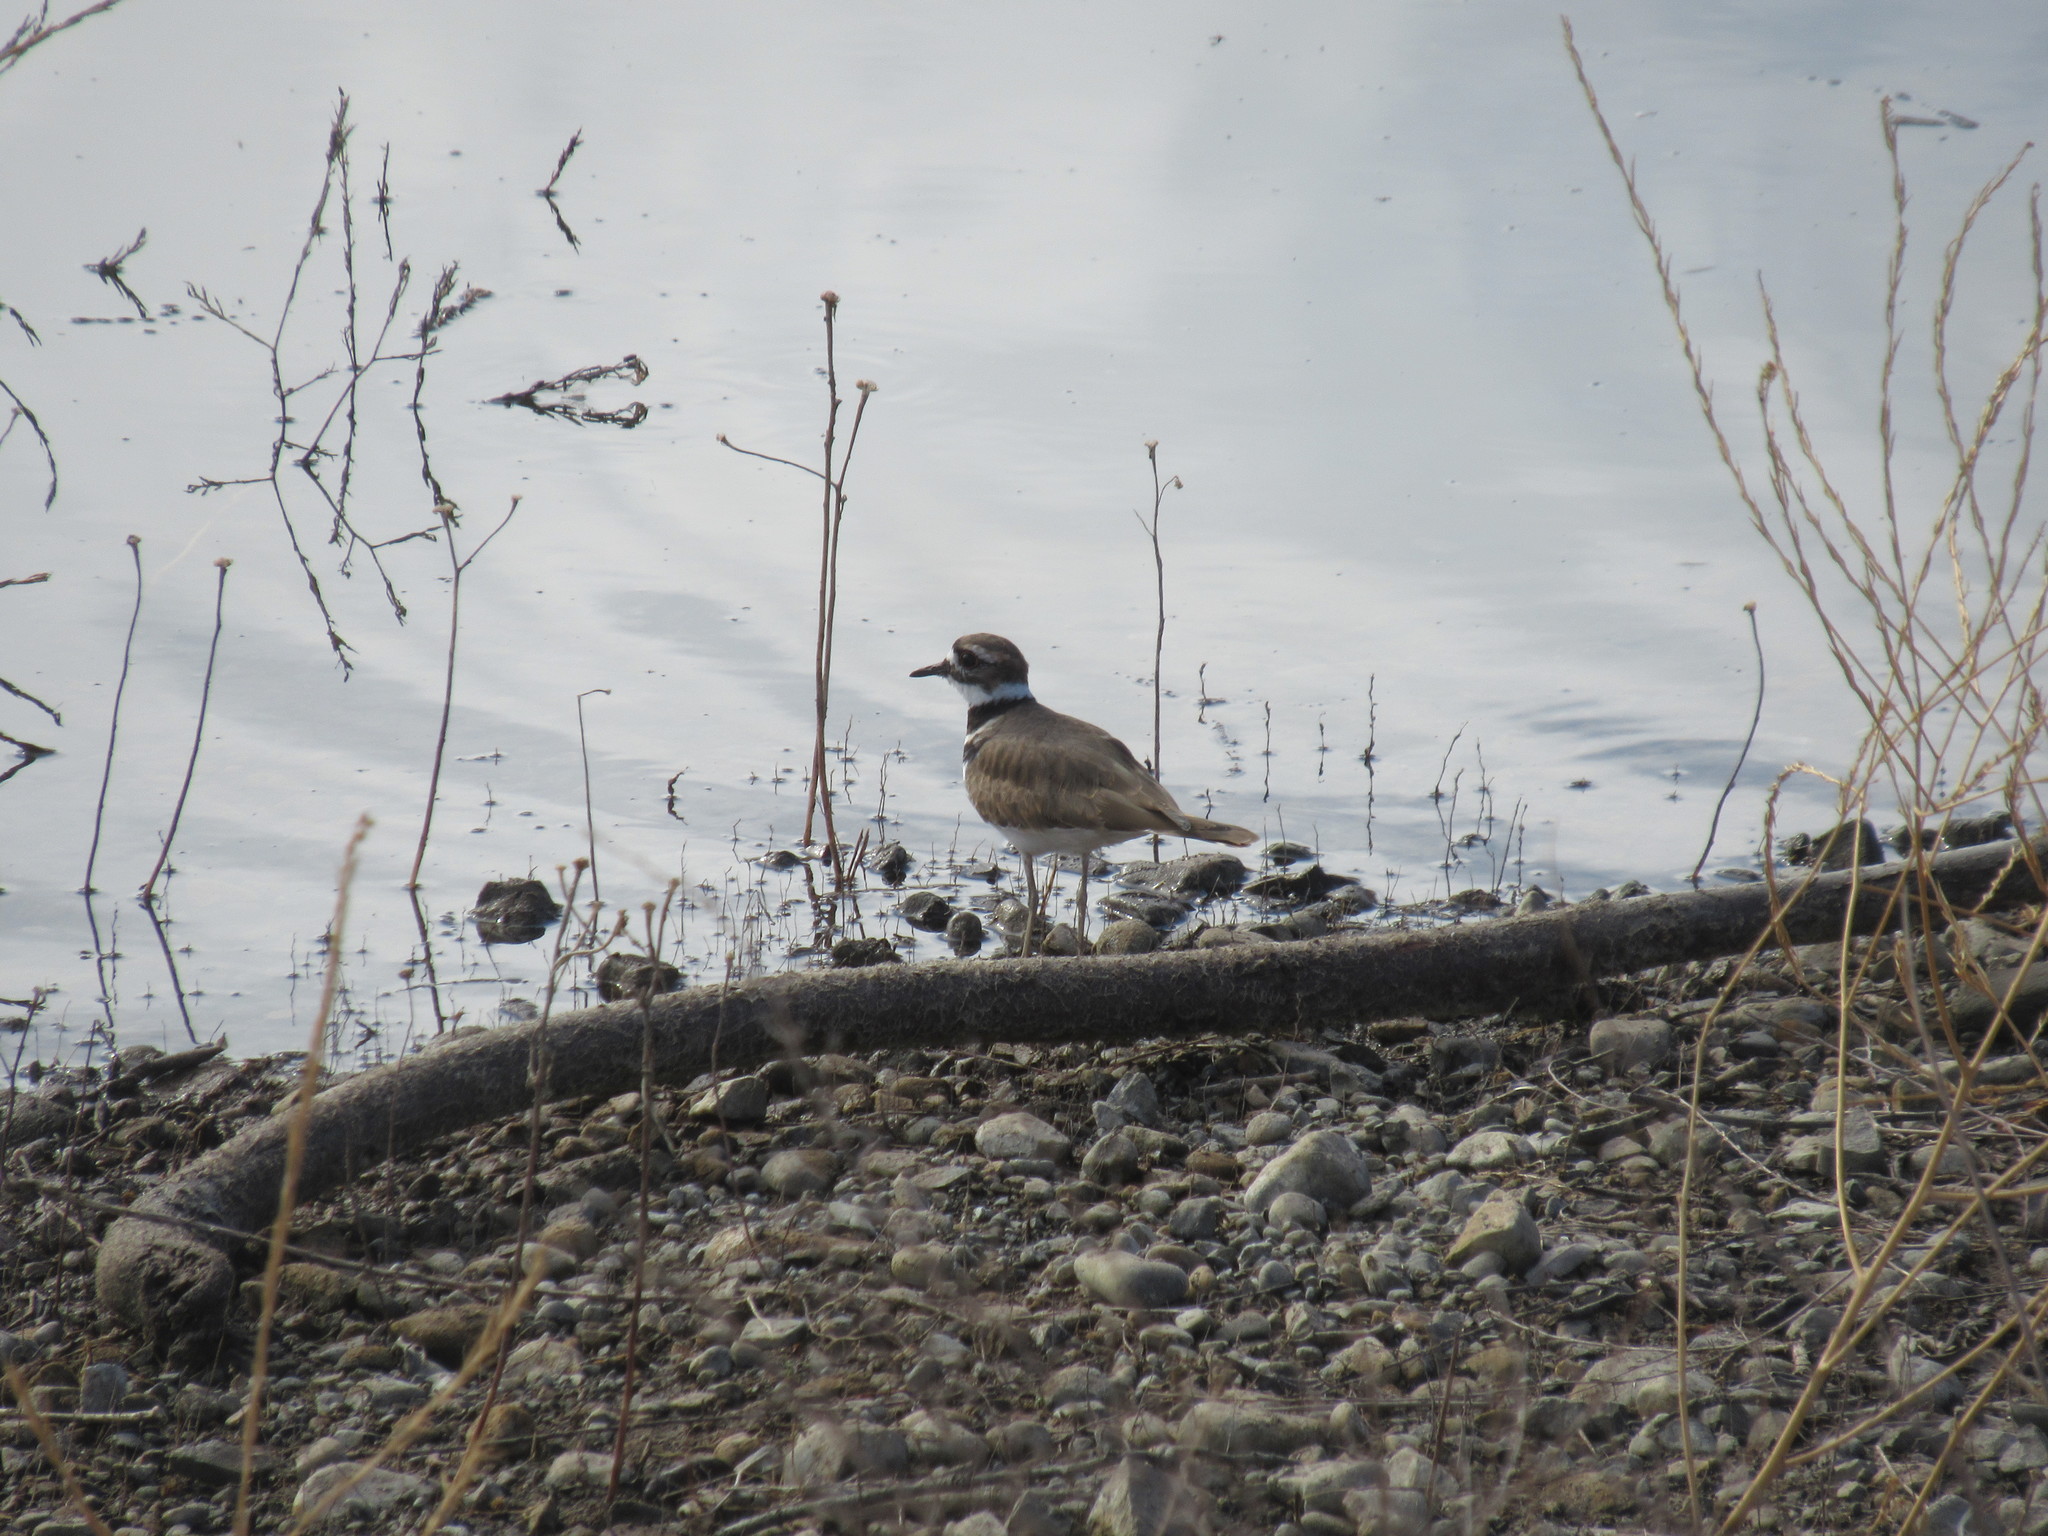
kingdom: Animalia
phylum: Chordata
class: Aves
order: Charadriiformes
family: Charadriidae
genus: Charadrius
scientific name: Charadrius vociferus
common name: Killdeer
